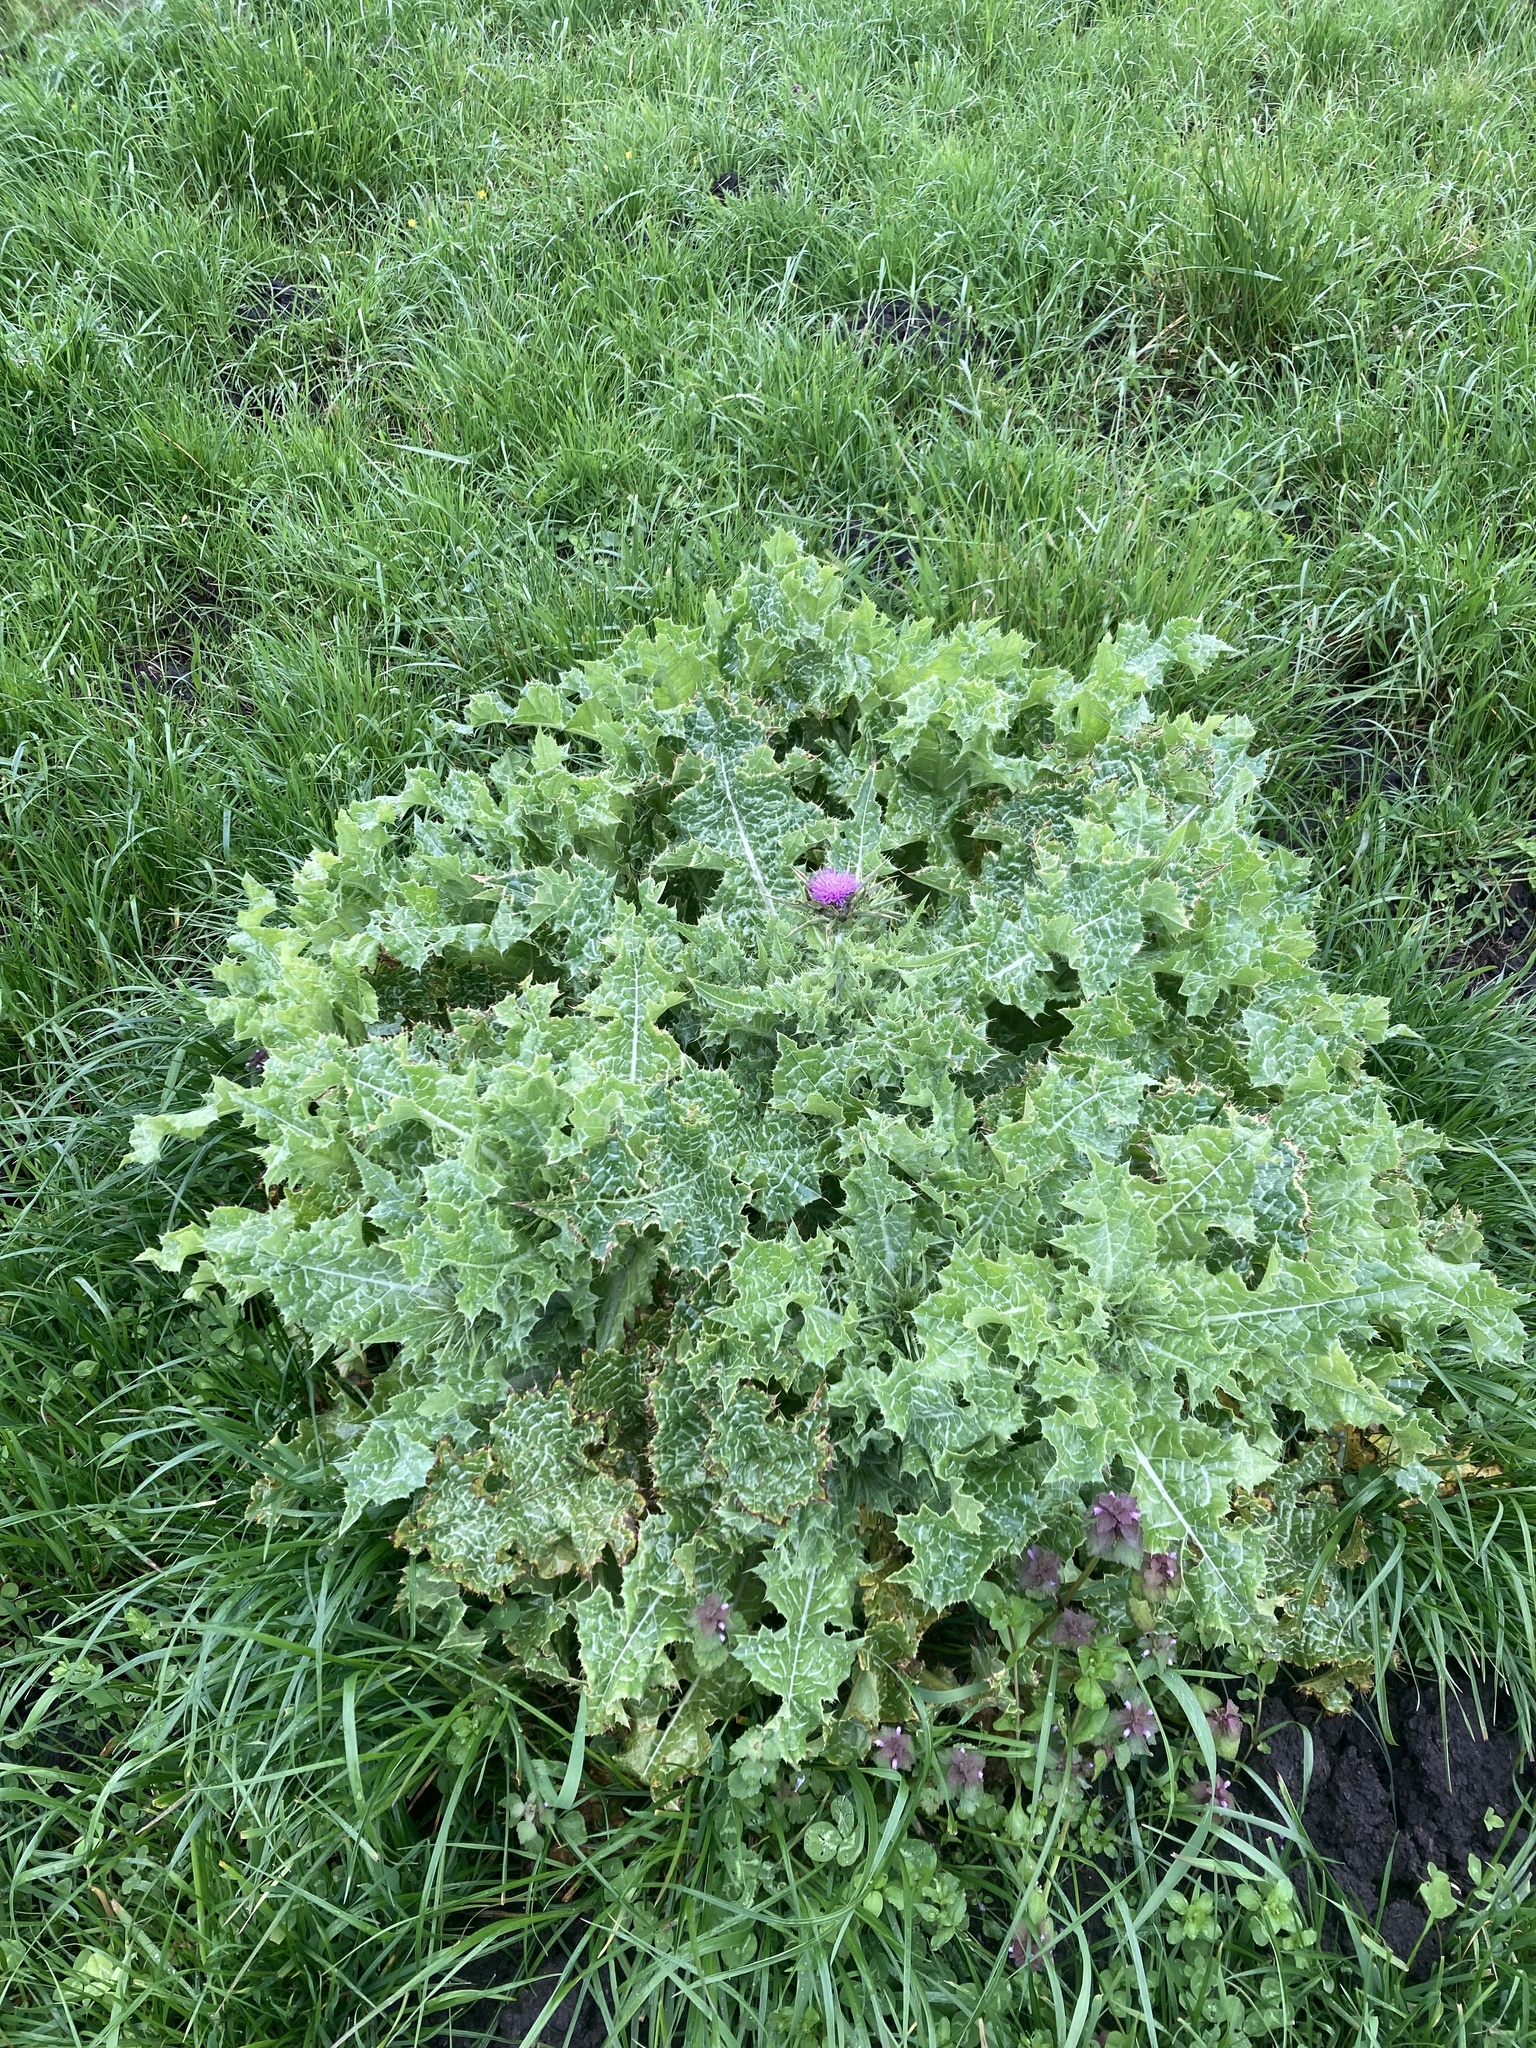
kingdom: Plantae
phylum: Tracheophyta
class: Magnoliopsida
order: Asterales
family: Asteraceae
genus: Silybum
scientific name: Silybum marianum
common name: Milk thistle
